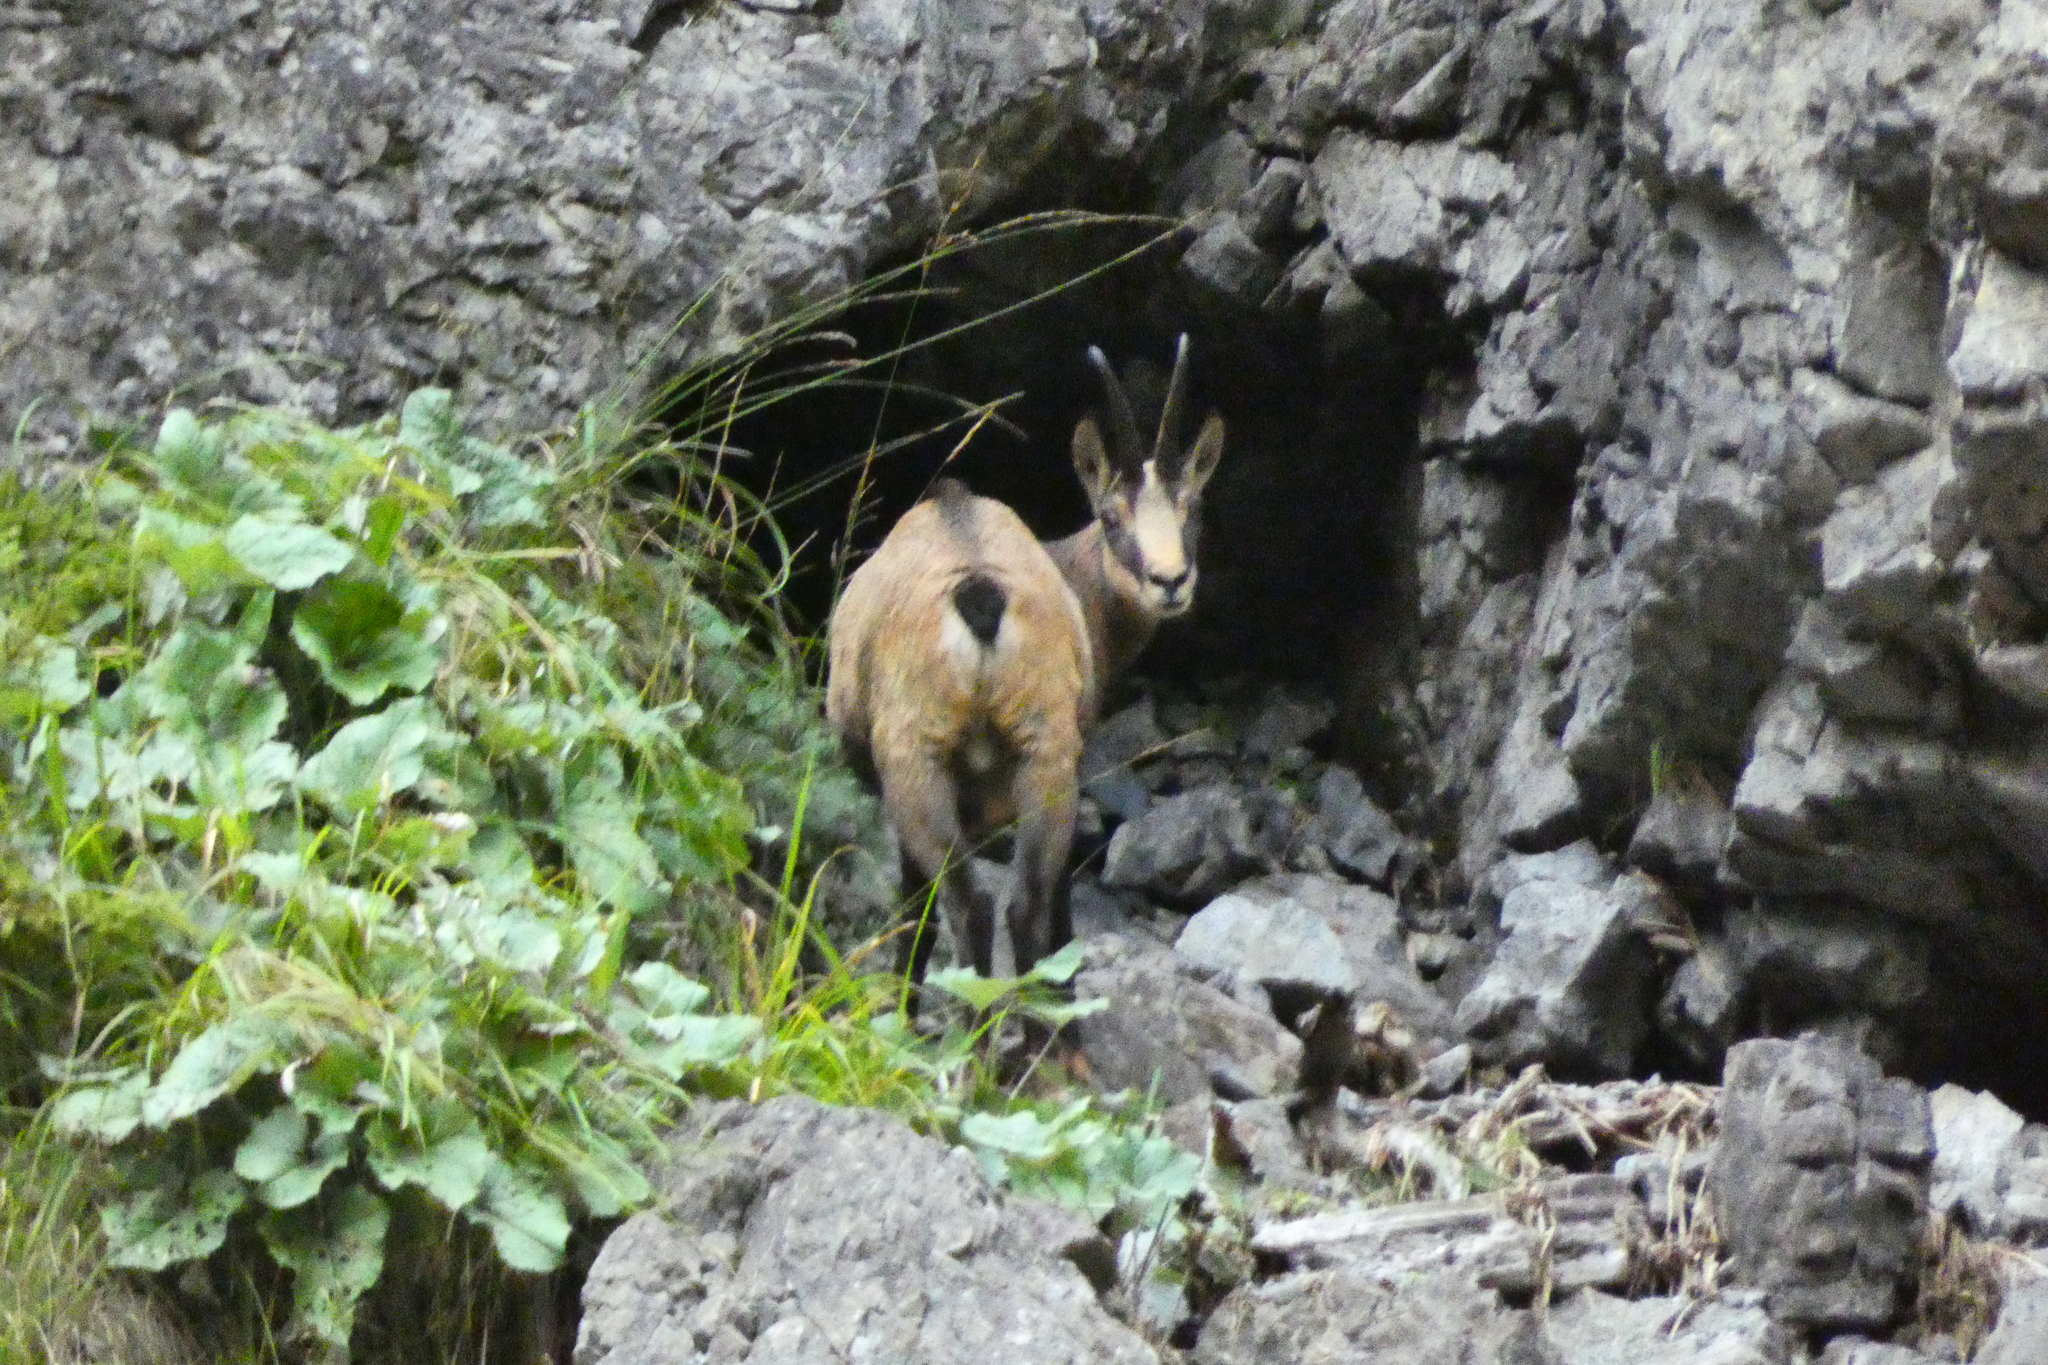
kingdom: Animalia
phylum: Chordata
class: Mammalia
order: Artiodactyla
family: Bovidae
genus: Rupicapra
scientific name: Rupicapra rupicapra
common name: Chamois
